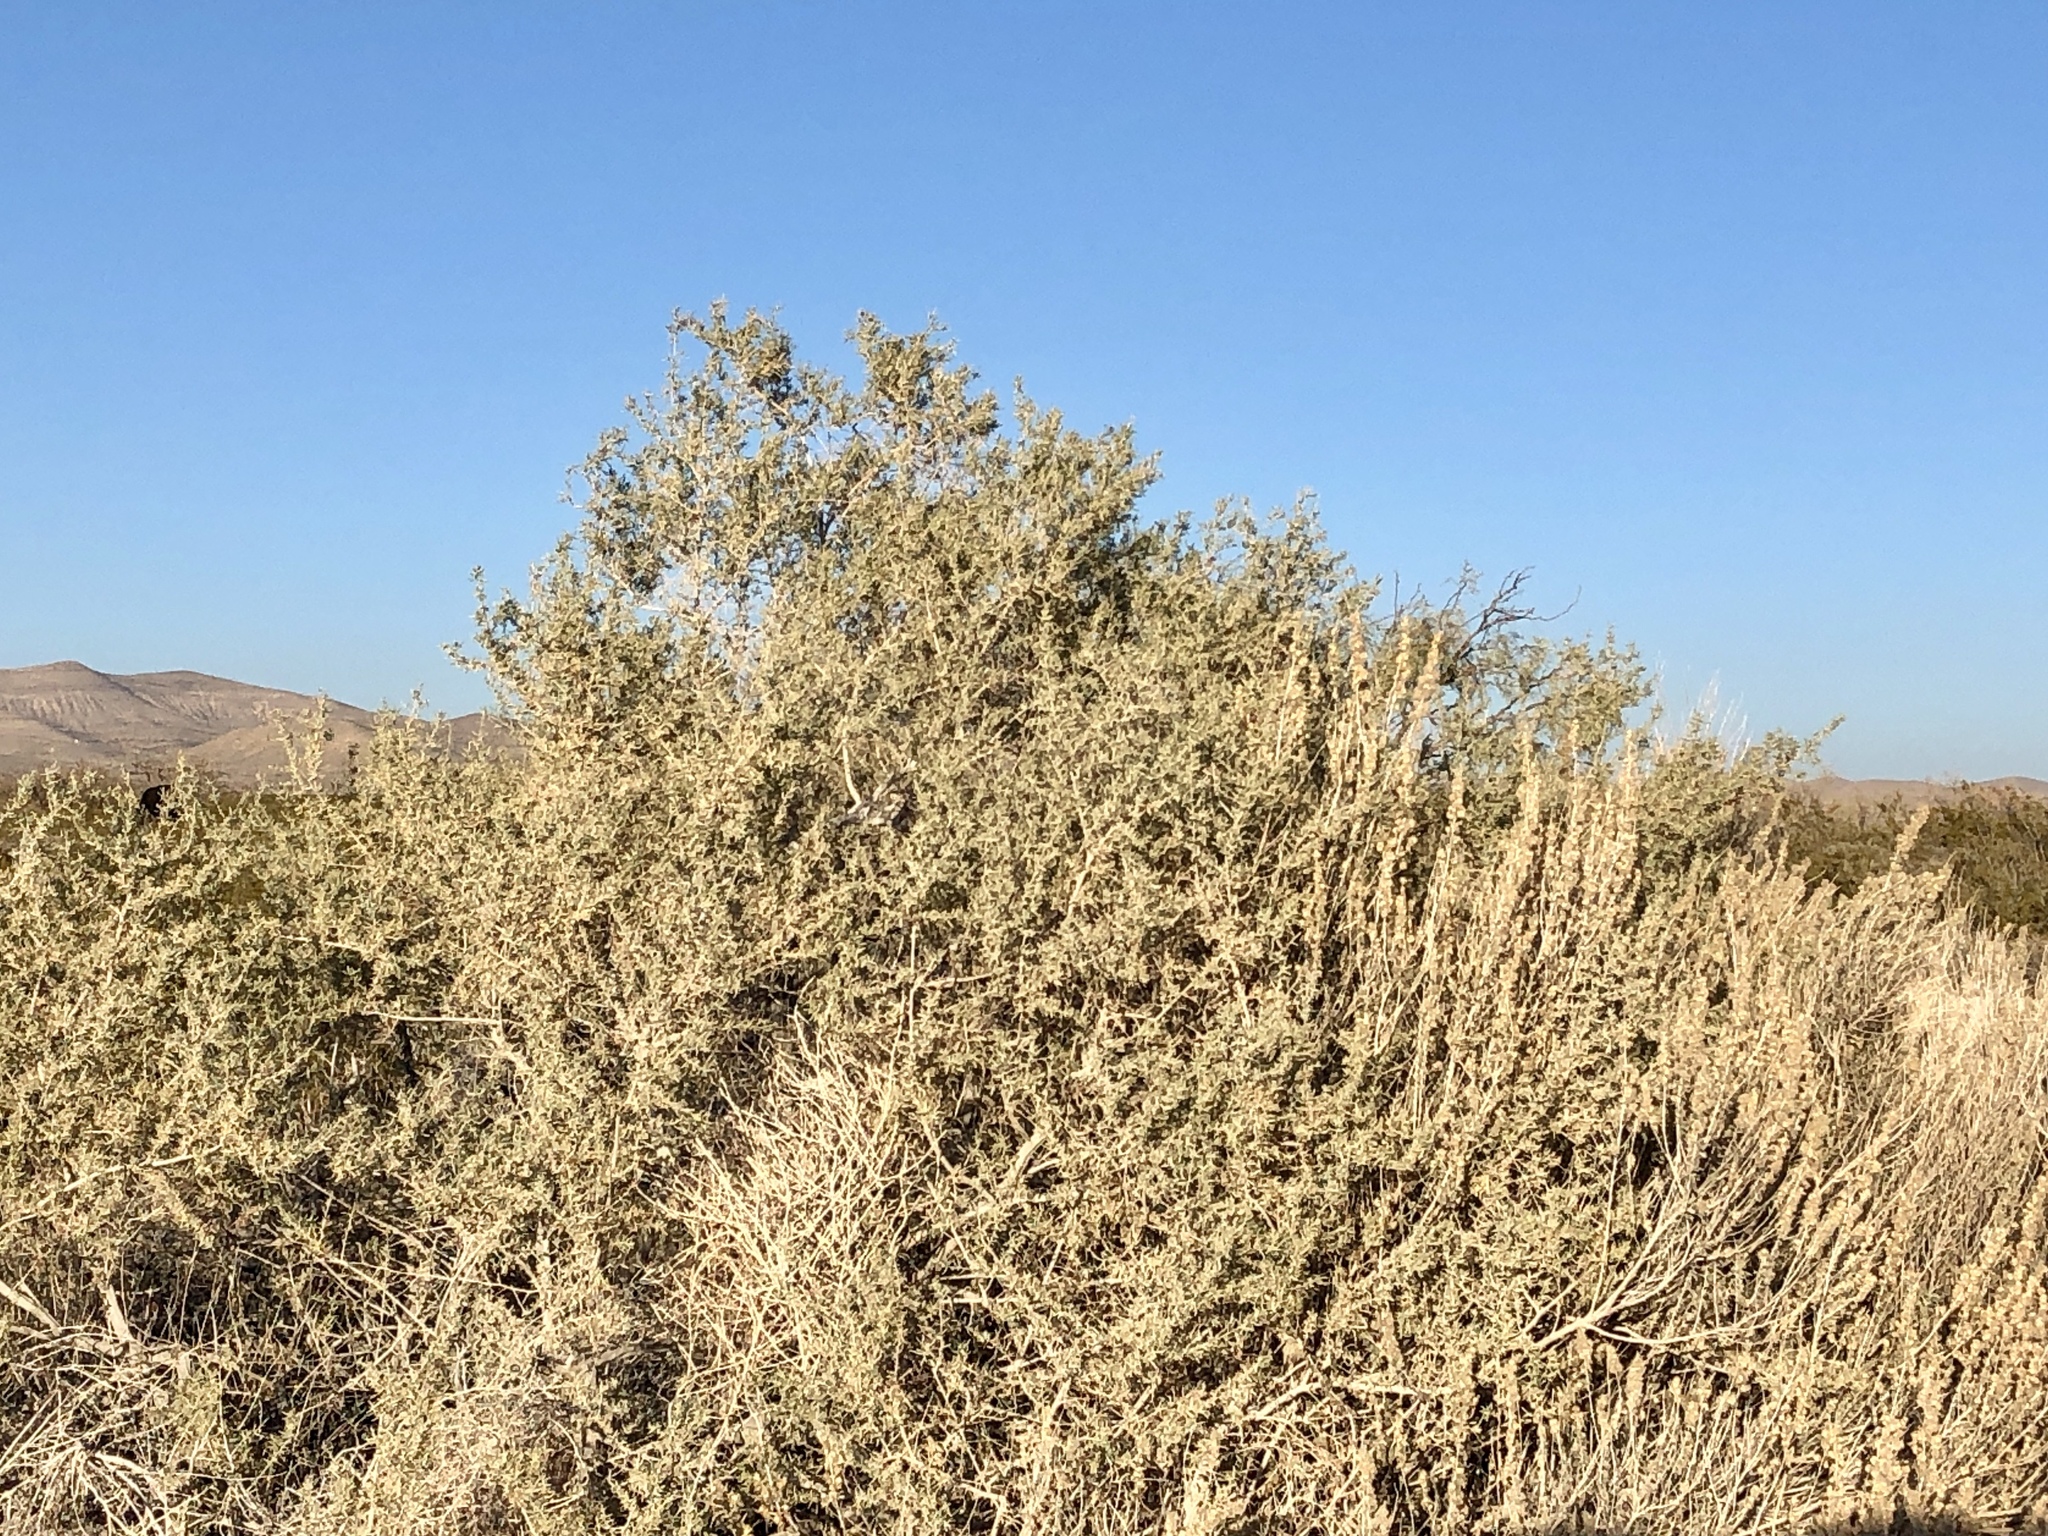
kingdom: Plantae
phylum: Tracheophyta
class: Magnoliopsida
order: Caryophyllales
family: Amaranthaceae
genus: Atriplex
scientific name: Atriplex canescens
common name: Four-wing saltbush
